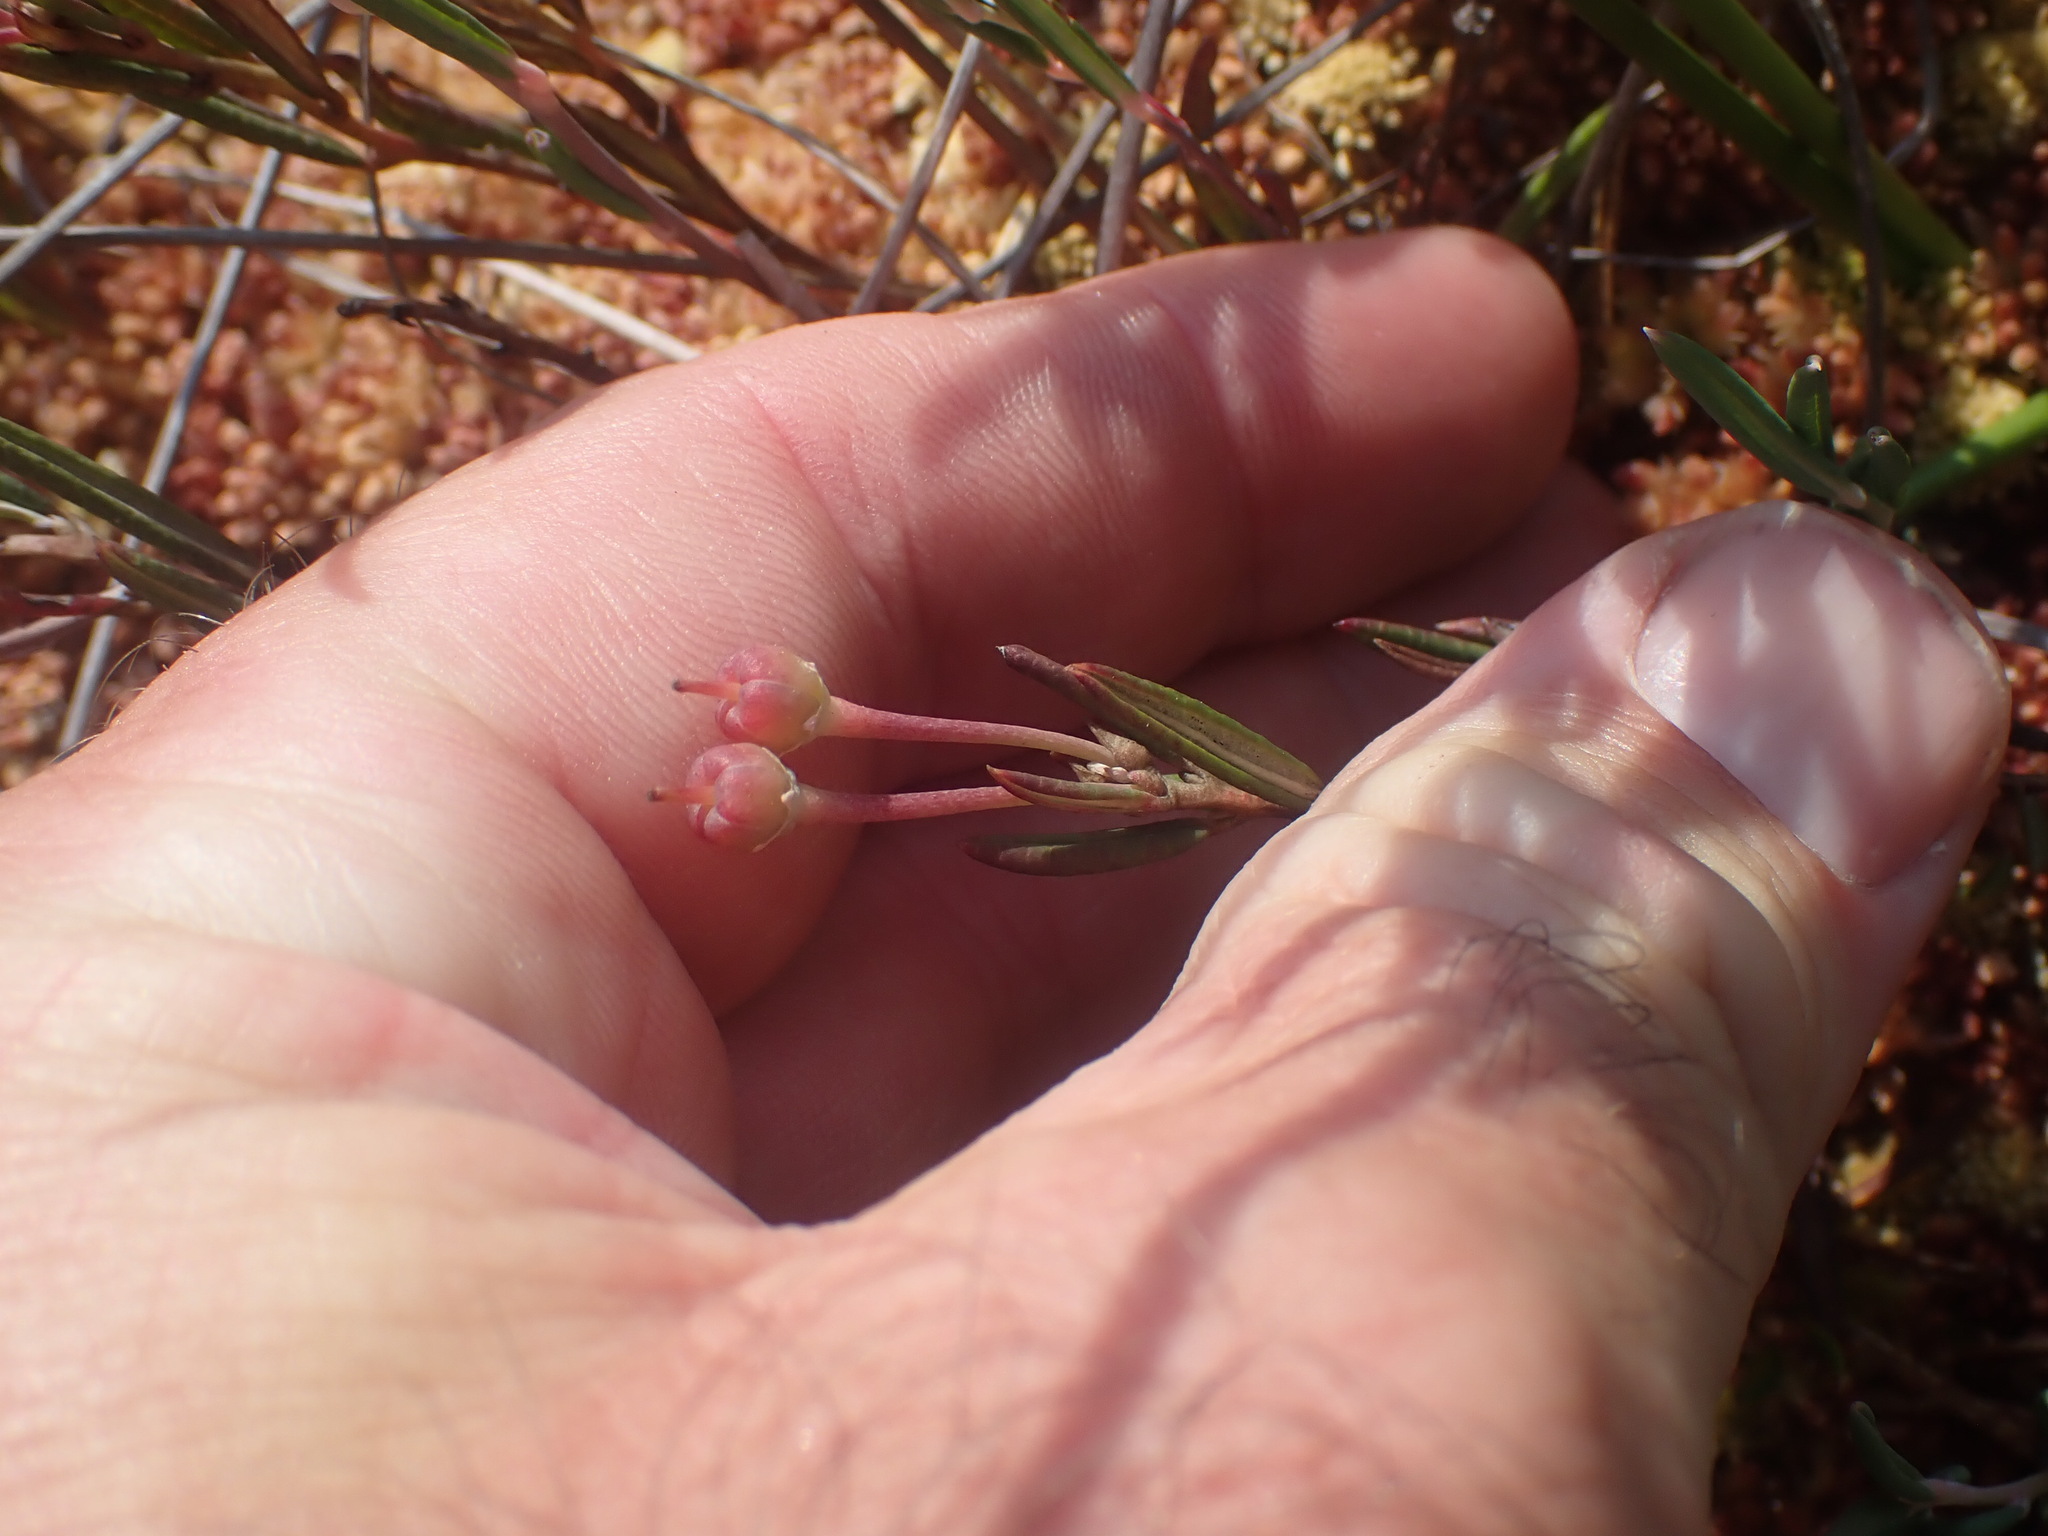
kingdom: Plantae
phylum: Tracheophyta
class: Magnoliopsida
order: Ericales
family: Ericaceae
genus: Andromeda
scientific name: Andromeda polifolia
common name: Bog-rosemary
